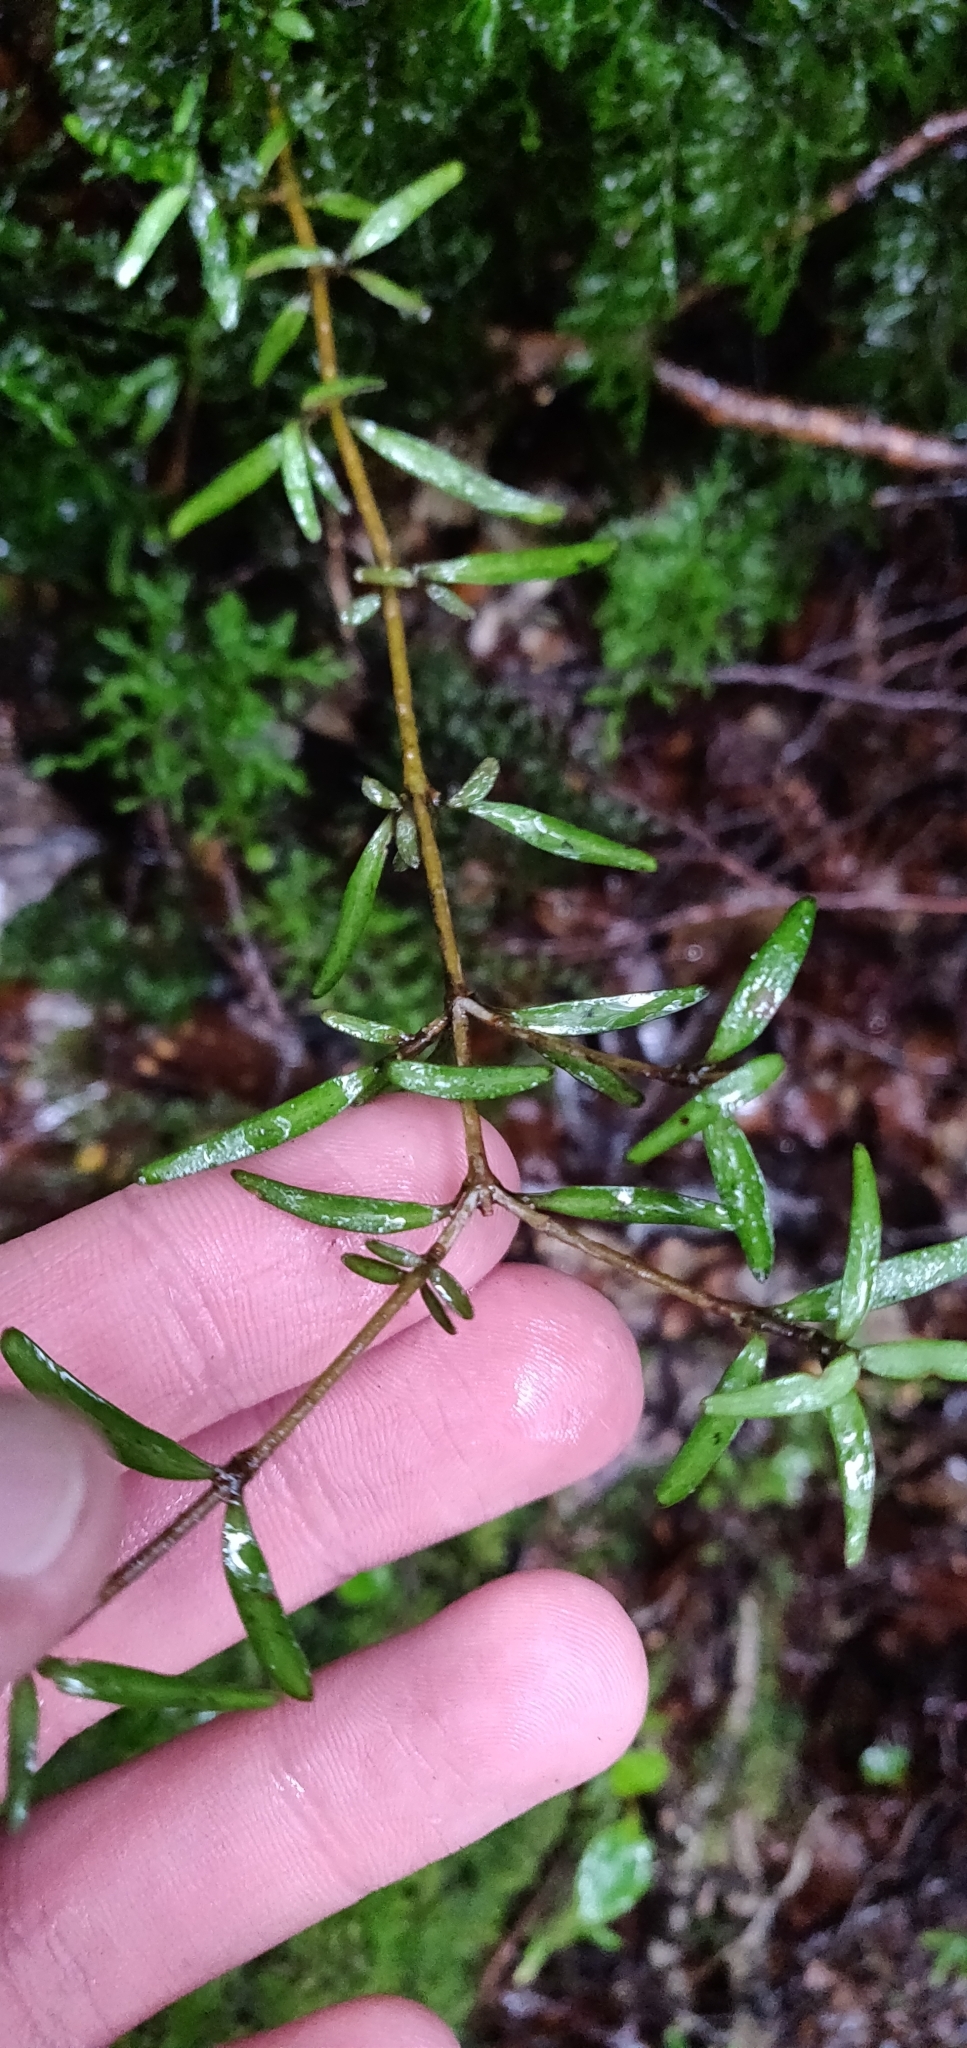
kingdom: Plantae
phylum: Tracheophyta
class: Magnoliopsida
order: Gentianales
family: Rubiaceae
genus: Coprosma
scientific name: Coprosma linariifolia
